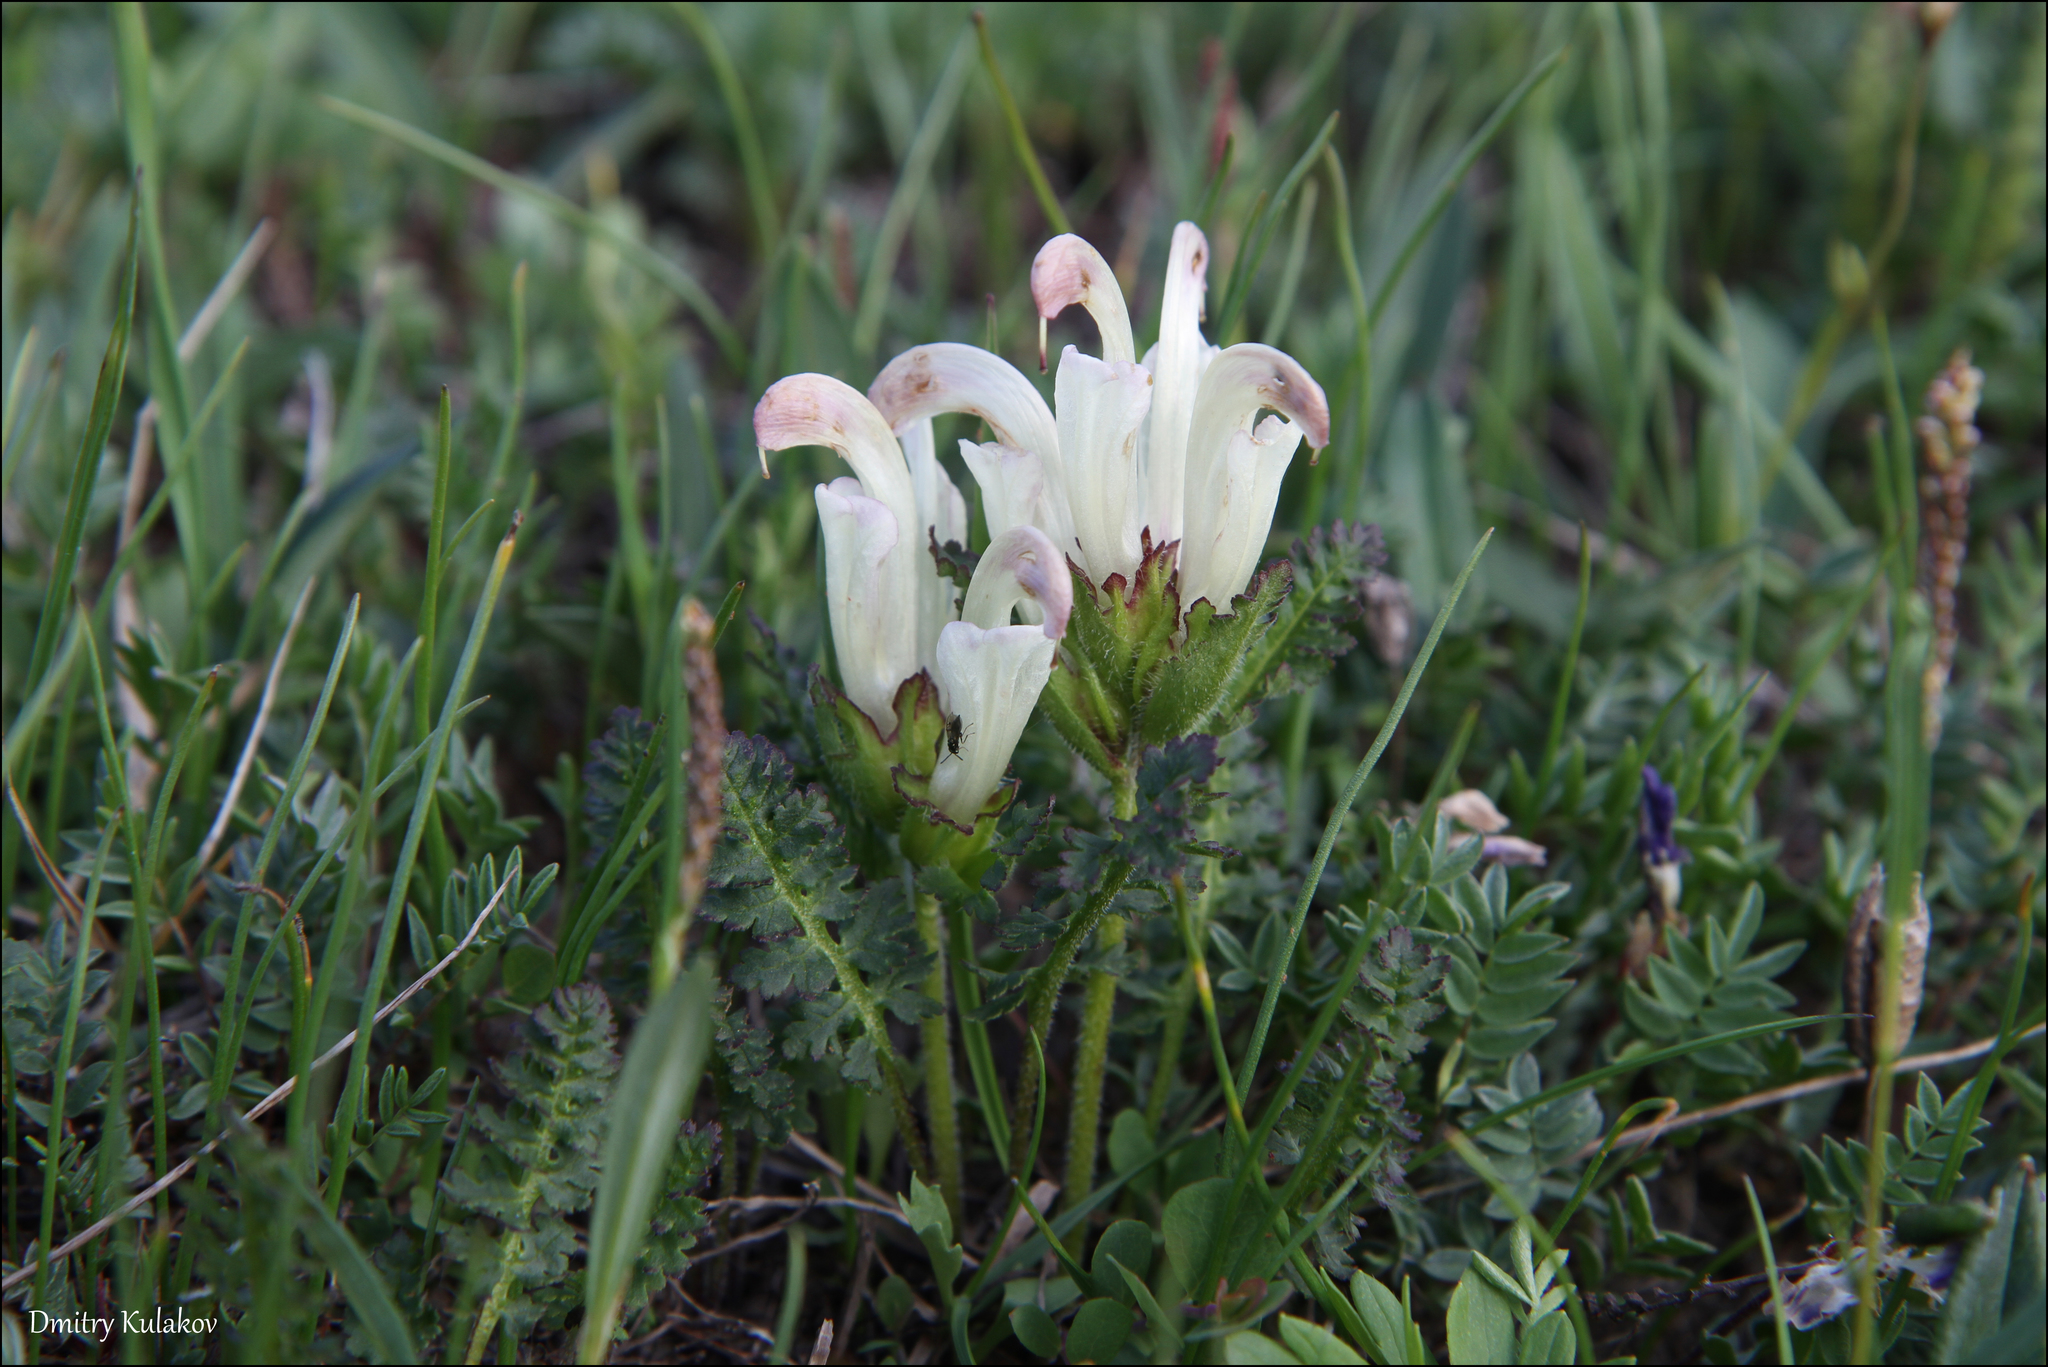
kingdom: Plantae
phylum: Tracheophyta
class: Magnoliopsida
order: Lamiales
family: Orobanchaceae
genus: Pedicularis
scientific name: Pedicularis capitata
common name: Capitate lousewort
